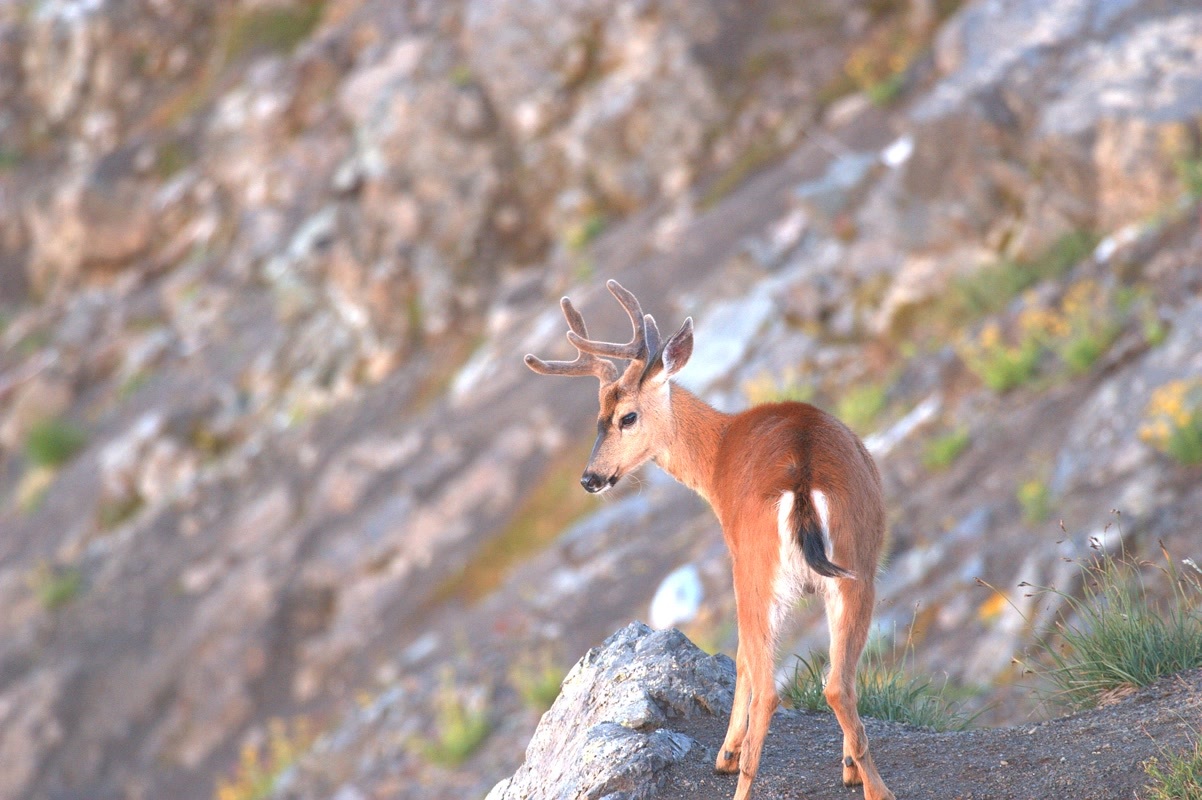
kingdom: Animalia
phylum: Chordata
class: Mammalia
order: Artiodactyla
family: Cervidae
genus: Odocoileus
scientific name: Odocoileus hemionus
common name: Mule deer
